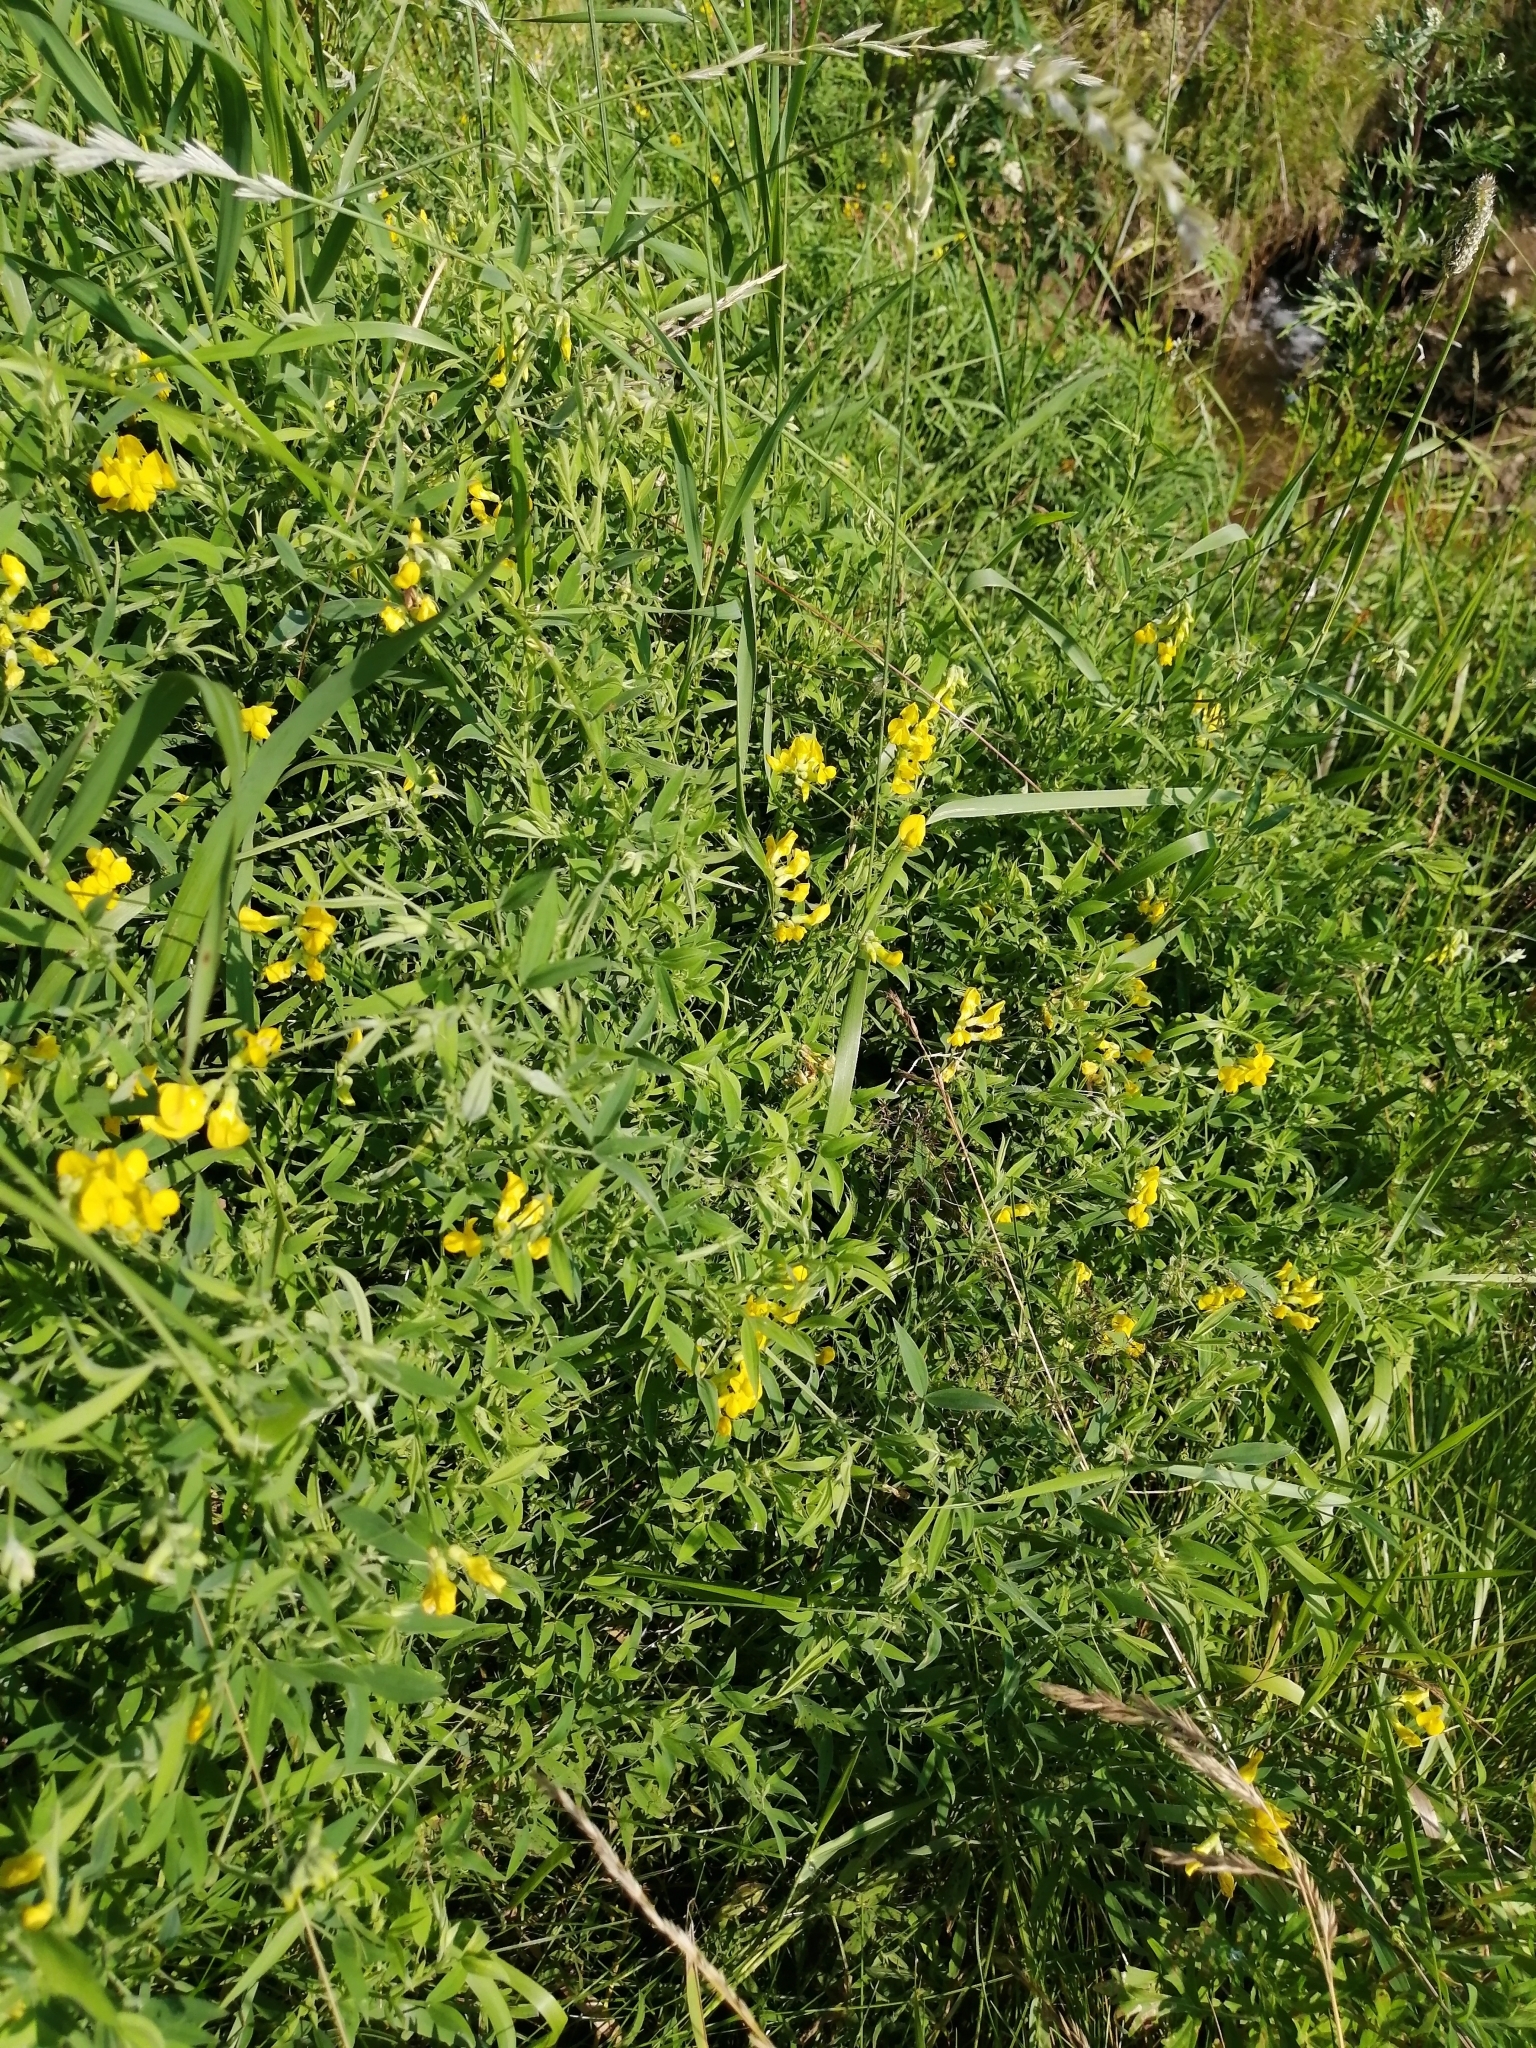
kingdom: Plantae
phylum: Tracheophyta
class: Magnoliopsida
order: Fabales
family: Fabaceae
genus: Lathyrus
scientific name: Lathyrus pratensis
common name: Meadow vetchling
